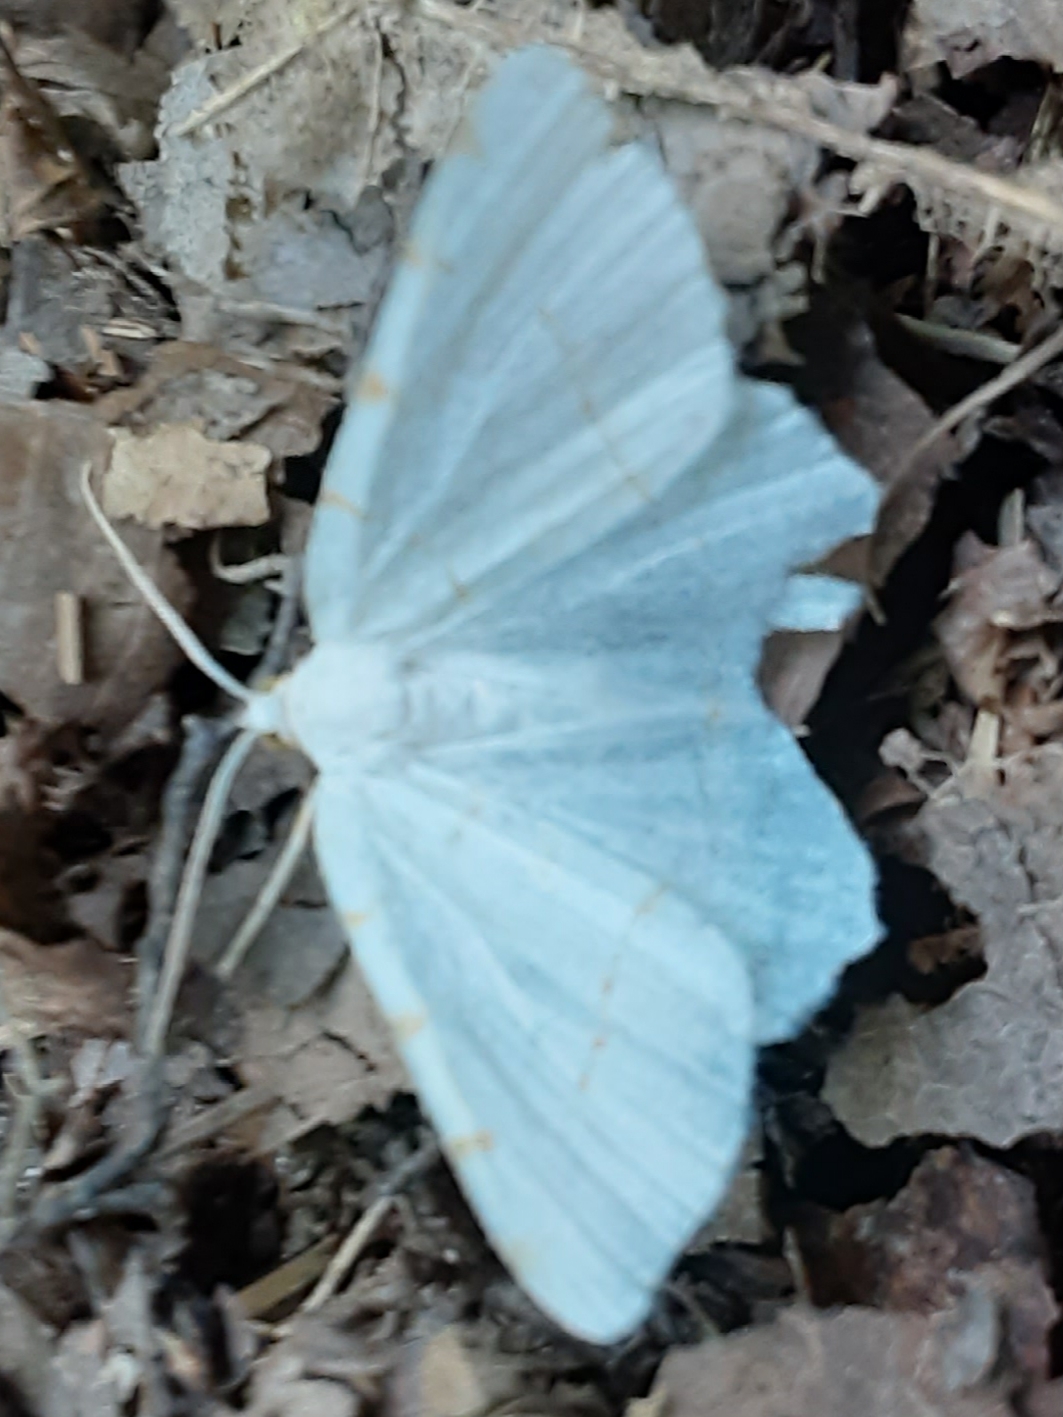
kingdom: Animalia
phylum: Arthropoda
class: Insecta
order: Lepidoptera
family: Geometridae
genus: Macaria
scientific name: Macaria pustularia
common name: Lesser maple spanworm moth
